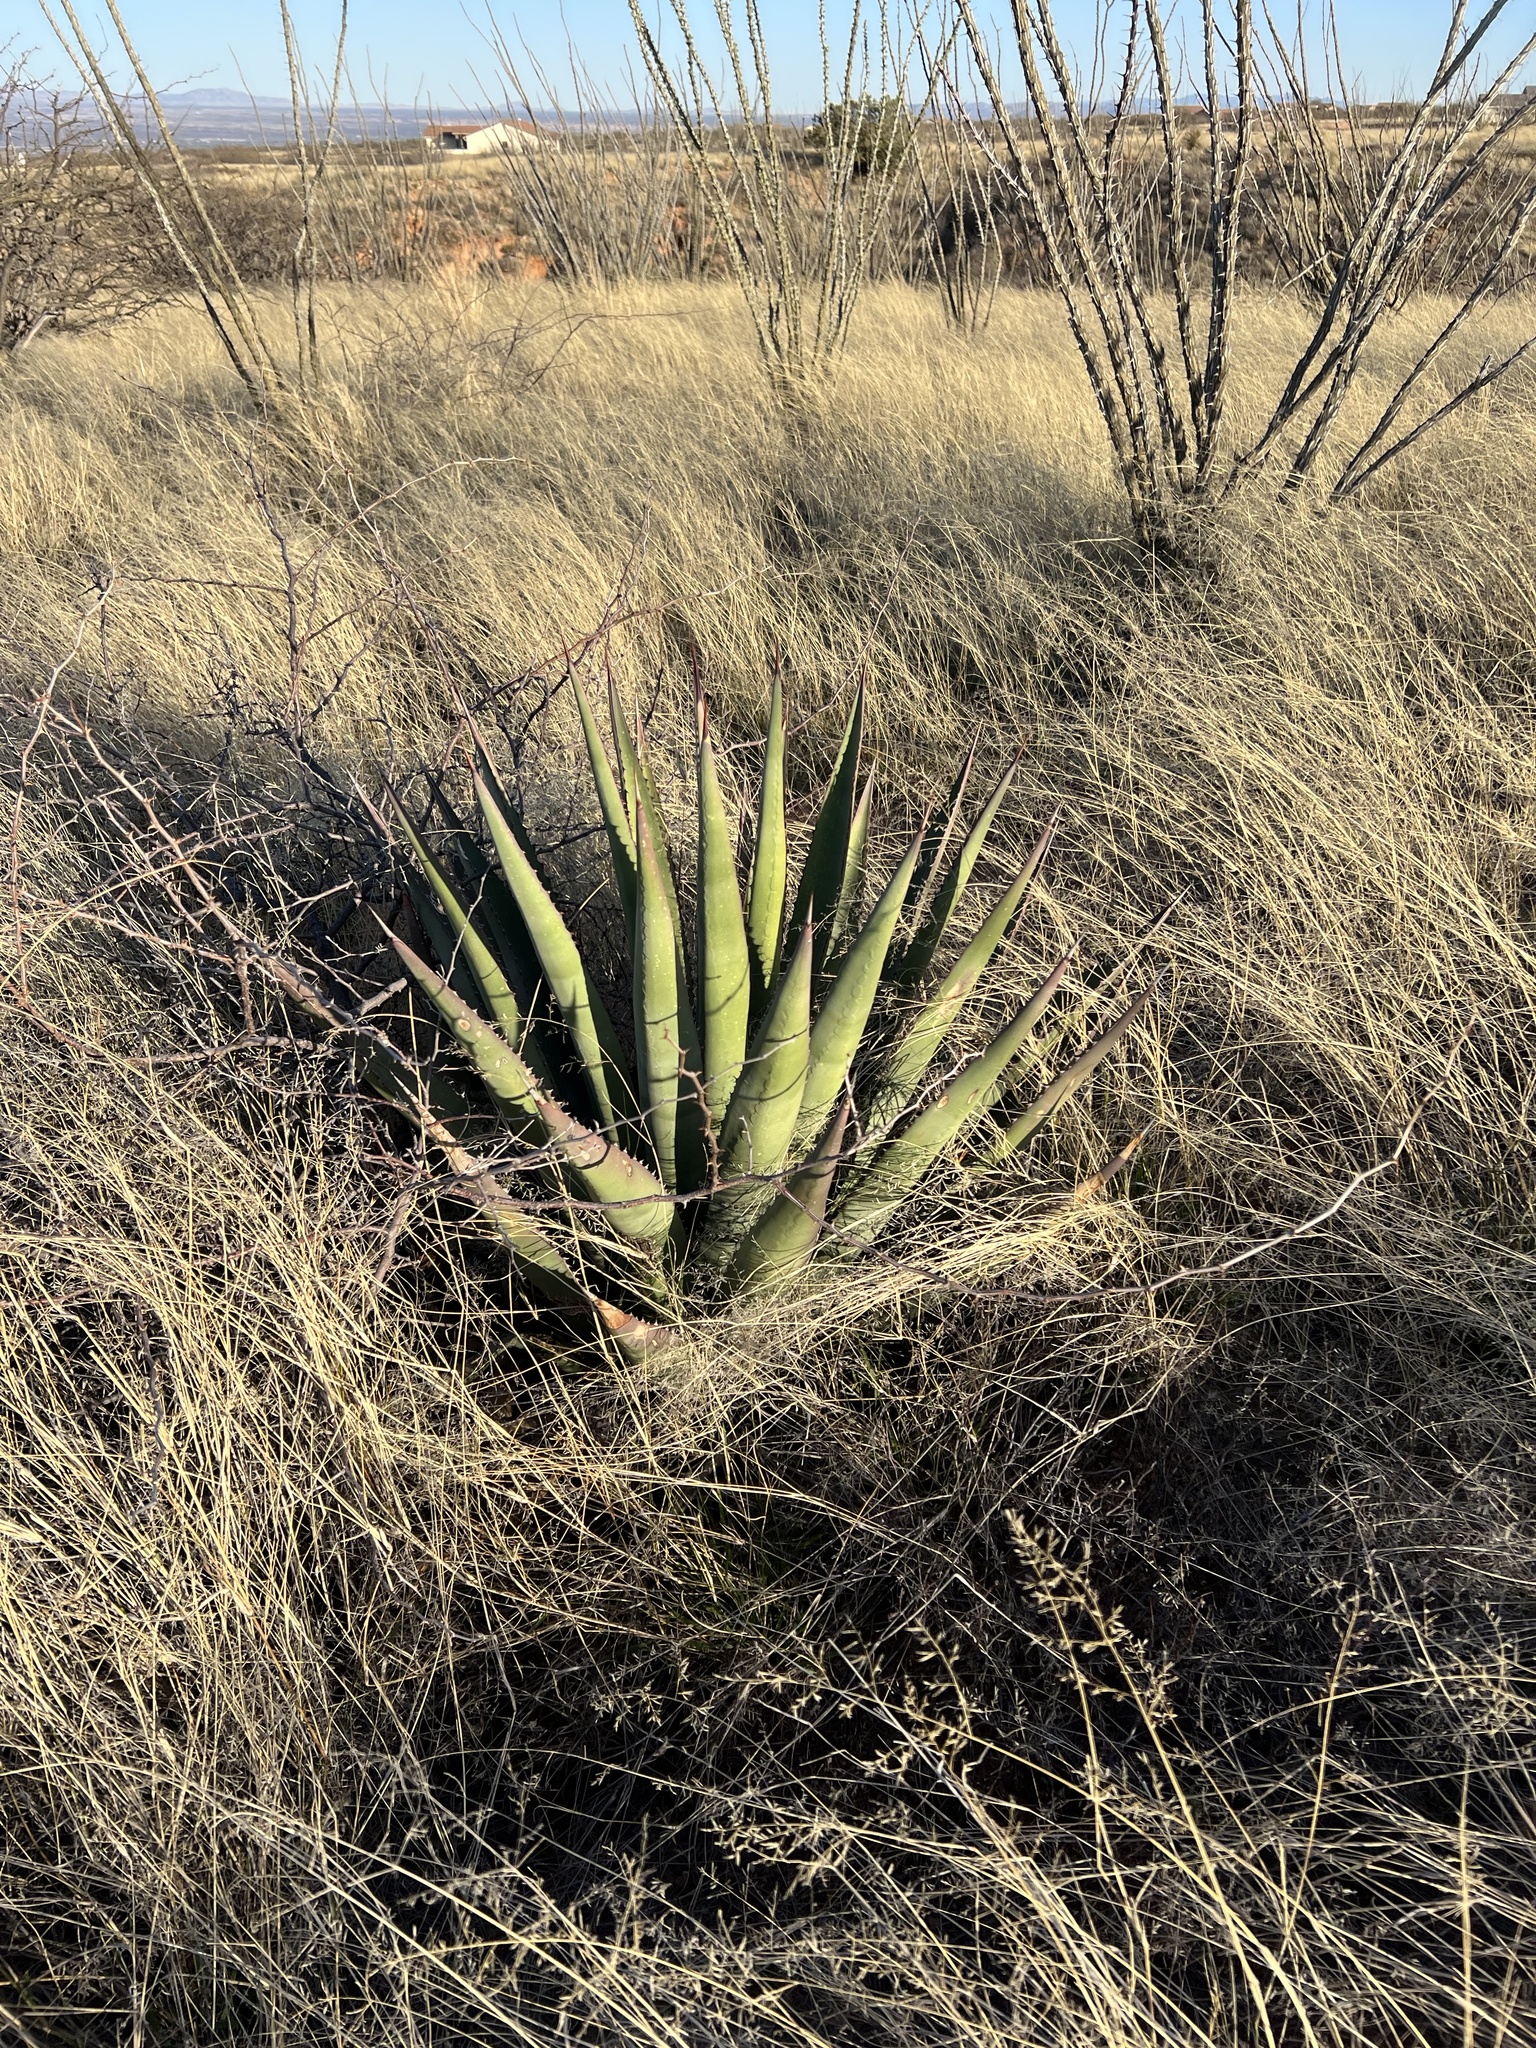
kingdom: Plantae
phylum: Tracheophyta
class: Liliopsida
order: Asparagales
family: Asparagaceae
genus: Agave
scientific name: Agave palmeri
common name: Palmer agave
